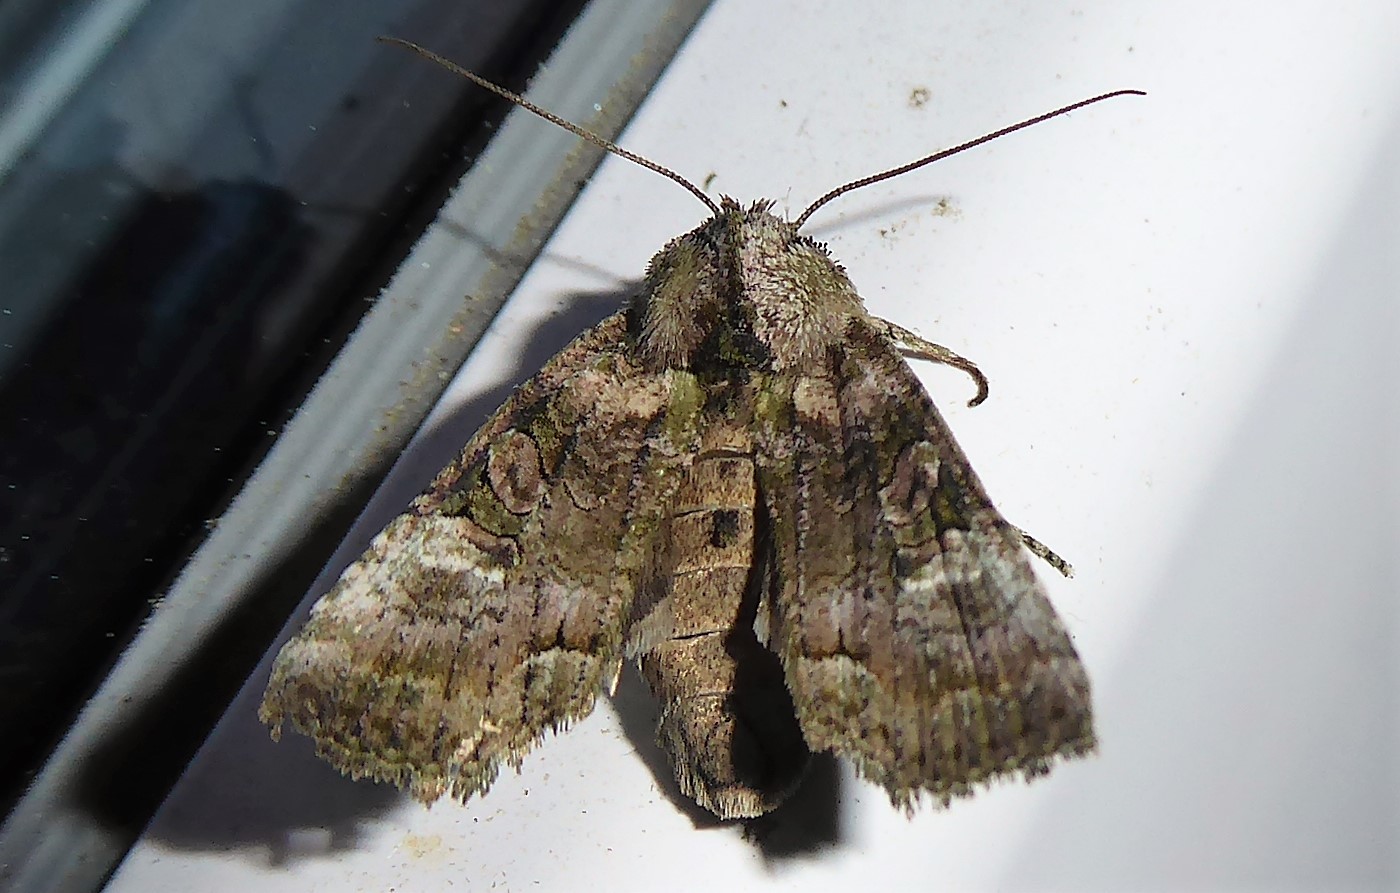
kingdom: Animalia
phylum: Arthropoda
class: Insecta
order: Lepidoptera
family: Noctuidae
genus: Meterana
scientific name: Meterana levis
